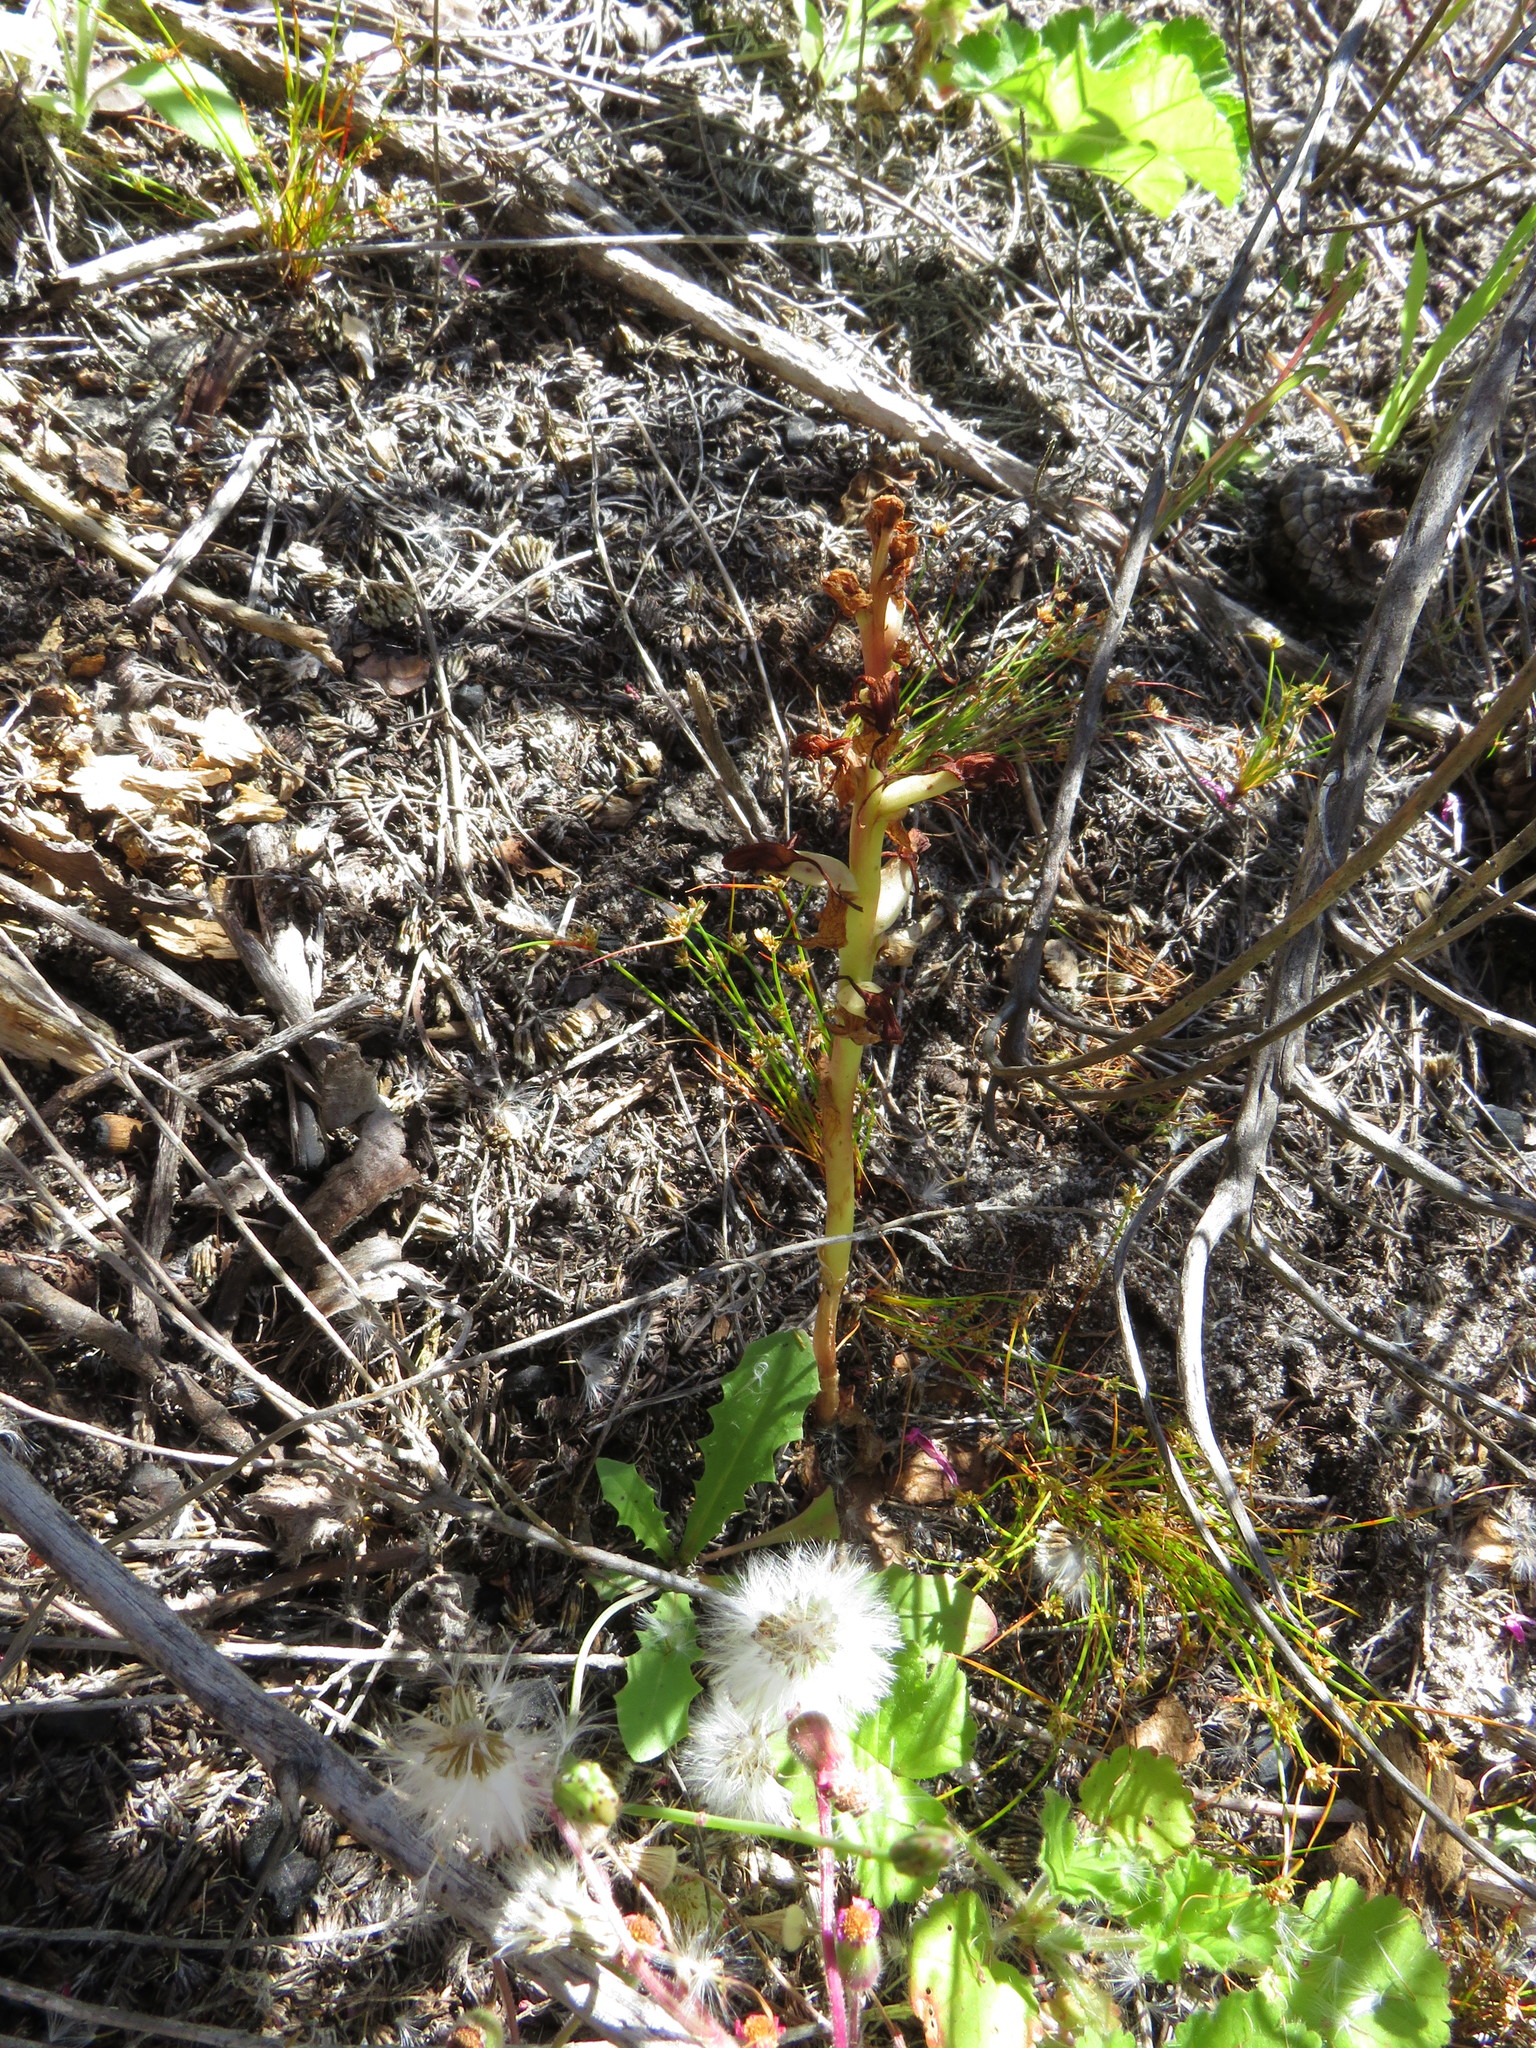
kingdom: Plantae
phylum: Tracheophyta
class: Liliopsida
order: Asparagales
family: Orchidaceae
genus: Satyrium
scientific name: Satyrium odorum
